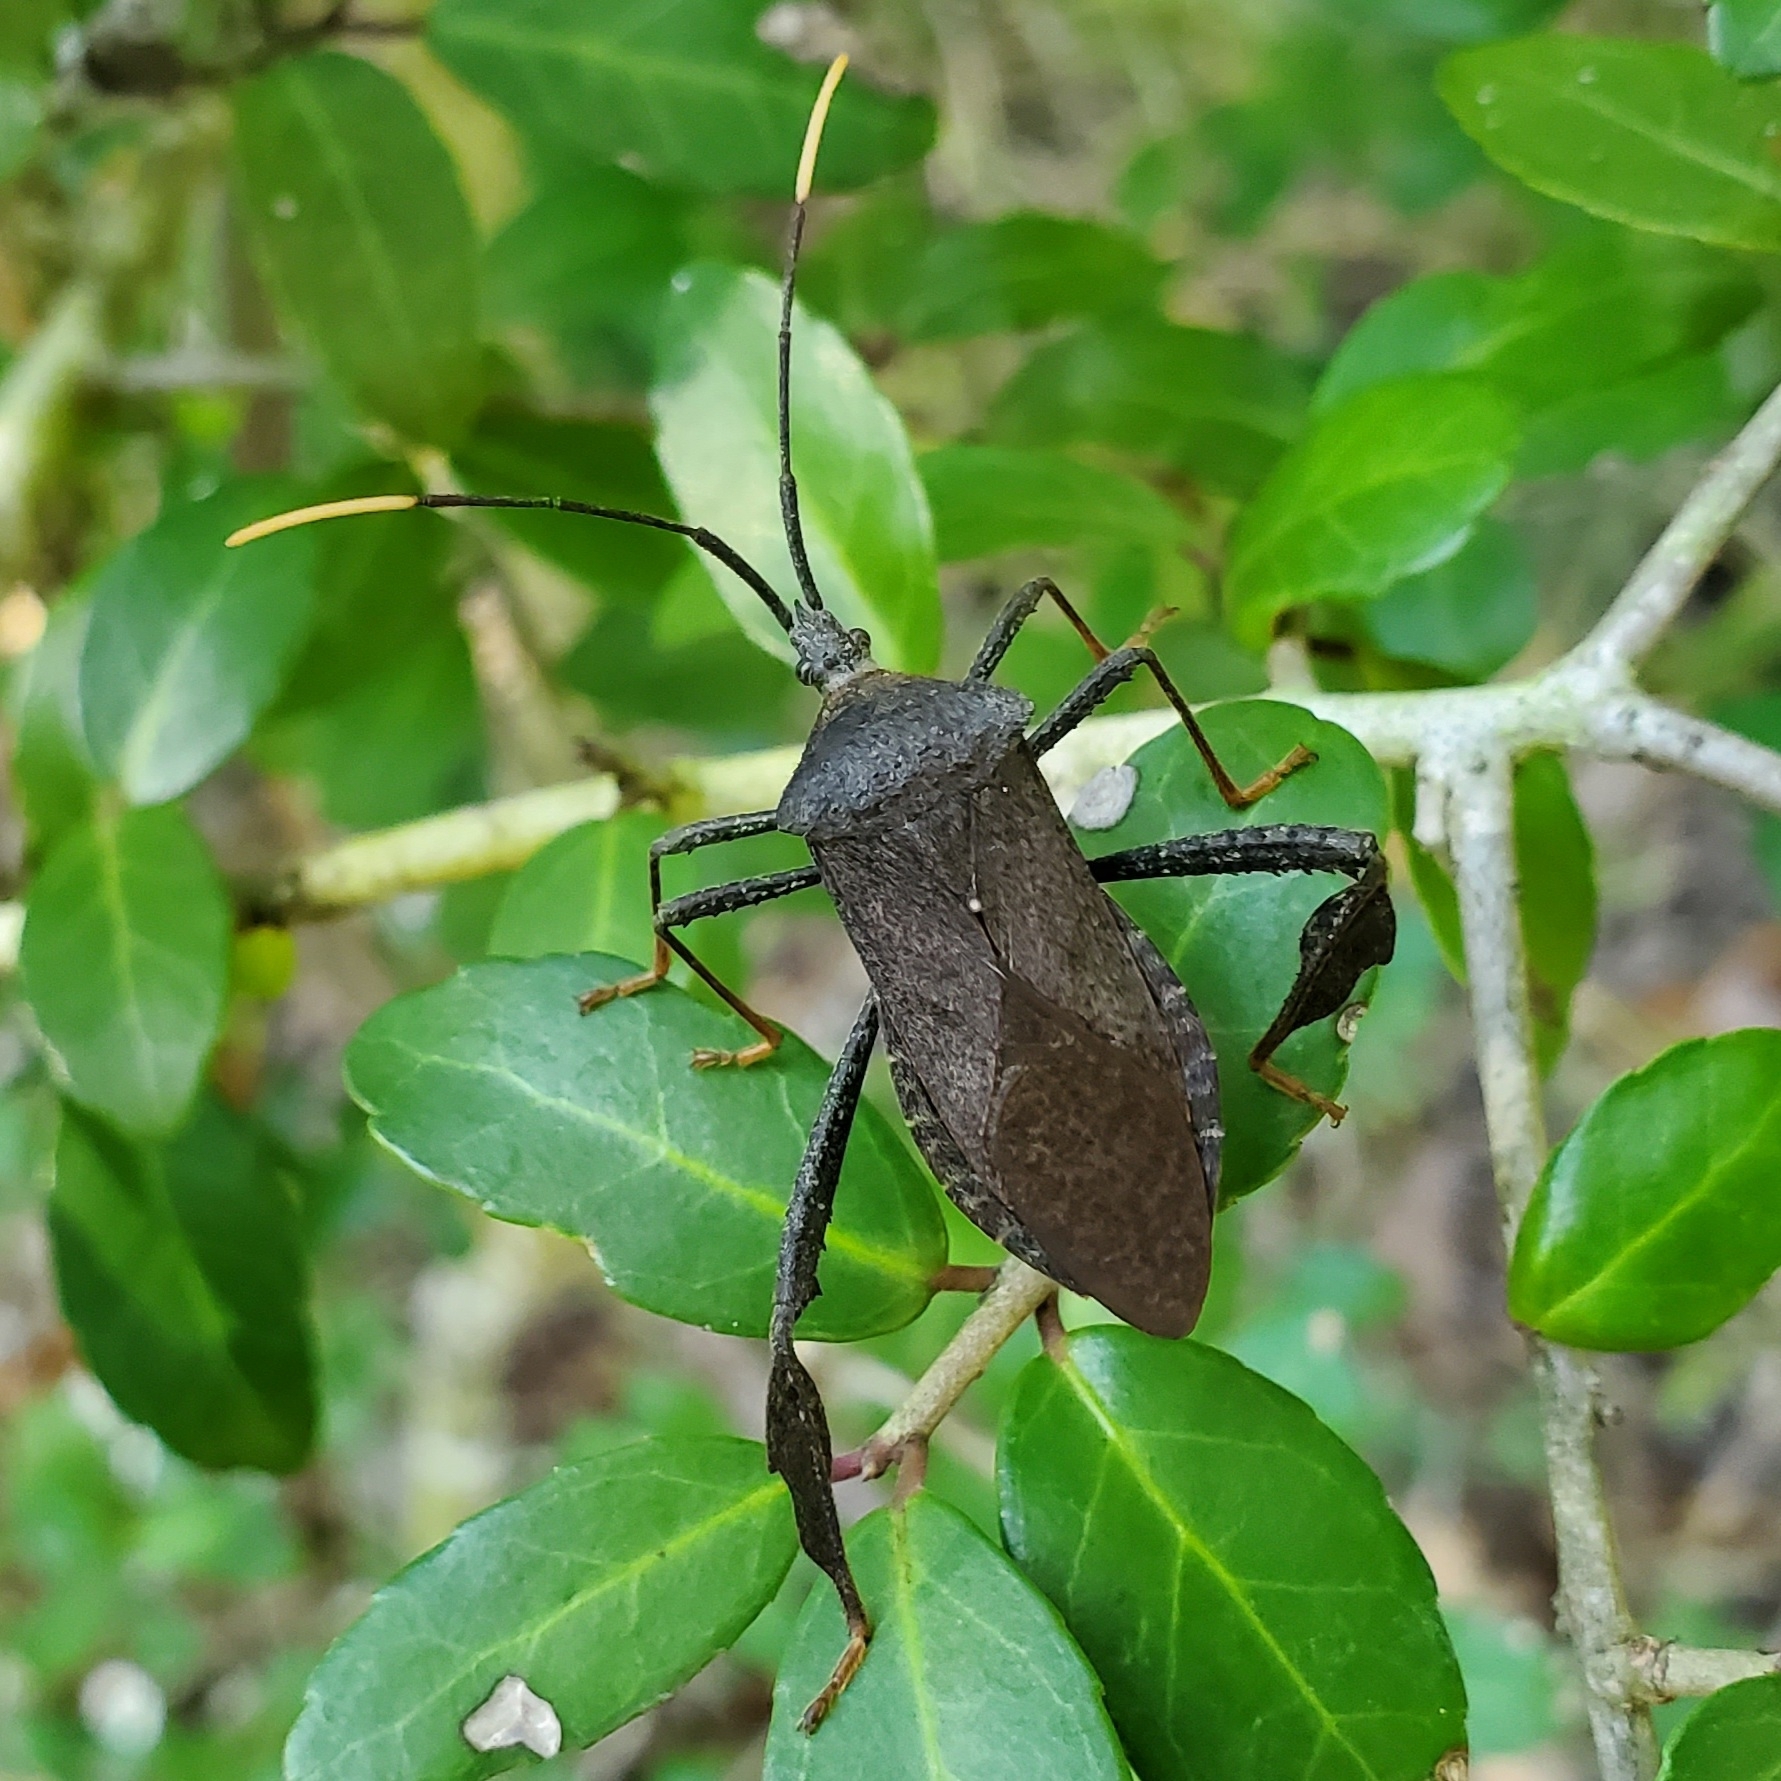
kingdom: Animalia
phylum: Arthropoda
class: Insecta
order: Hemiptera
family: Coreidae
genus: Acanthocephala
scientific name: Acanthocephala terminalis
